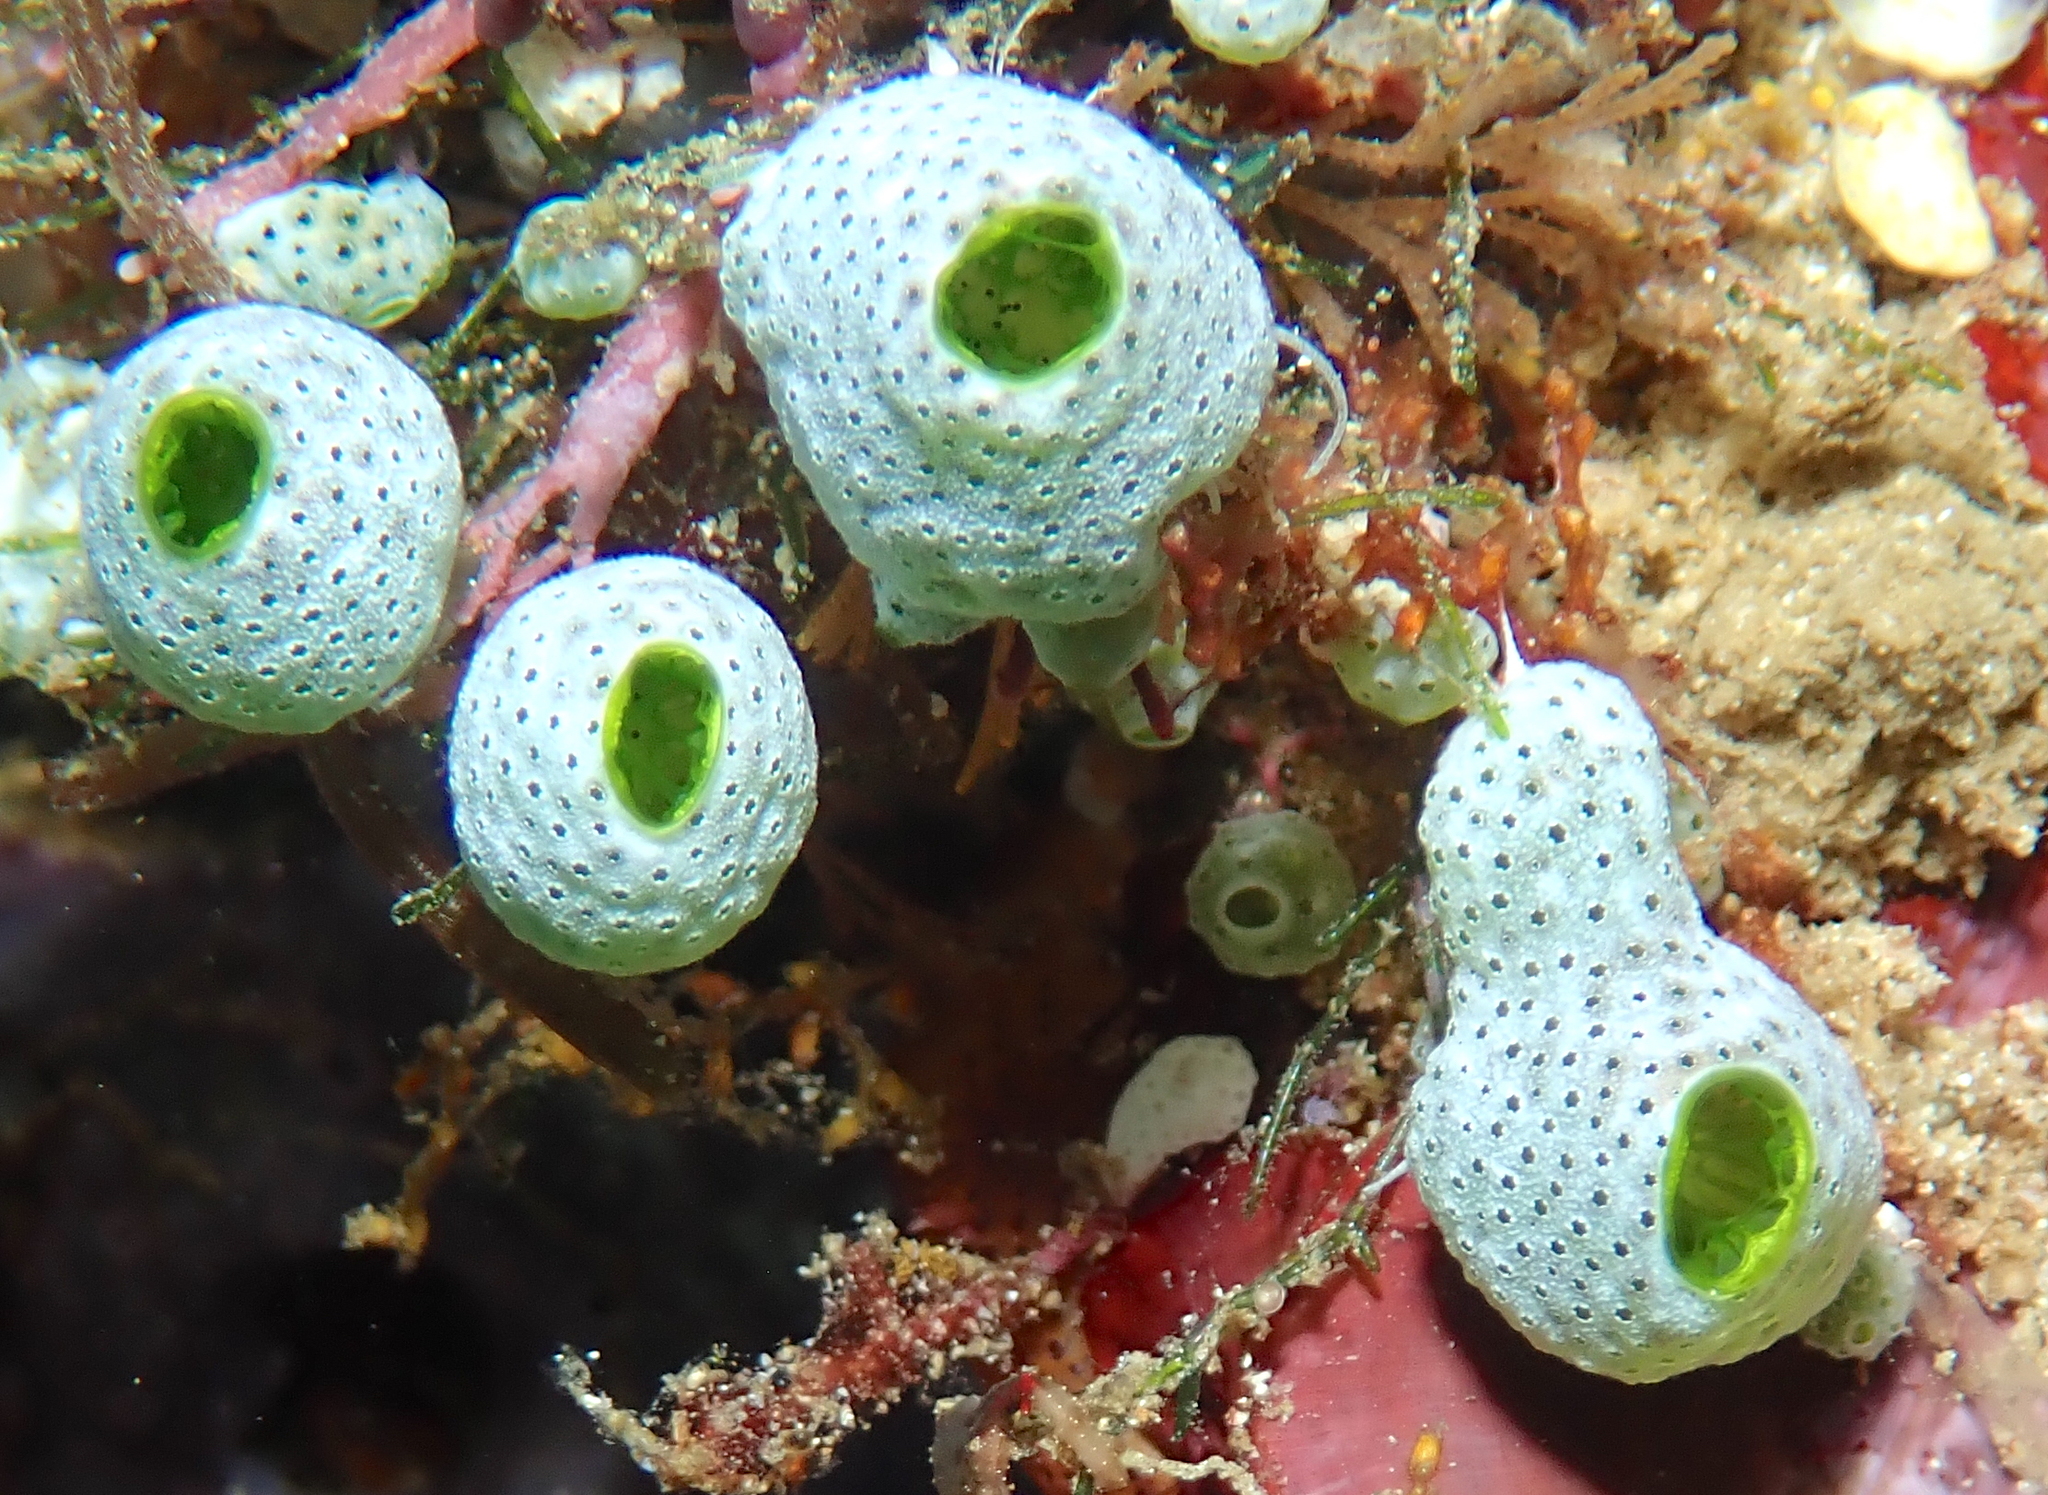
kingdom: Animalia
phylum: Chordata
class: Ascidiacea
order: Aplousobranchia
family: Didemnidae
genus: Didemnum
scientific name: Didemnum molle
